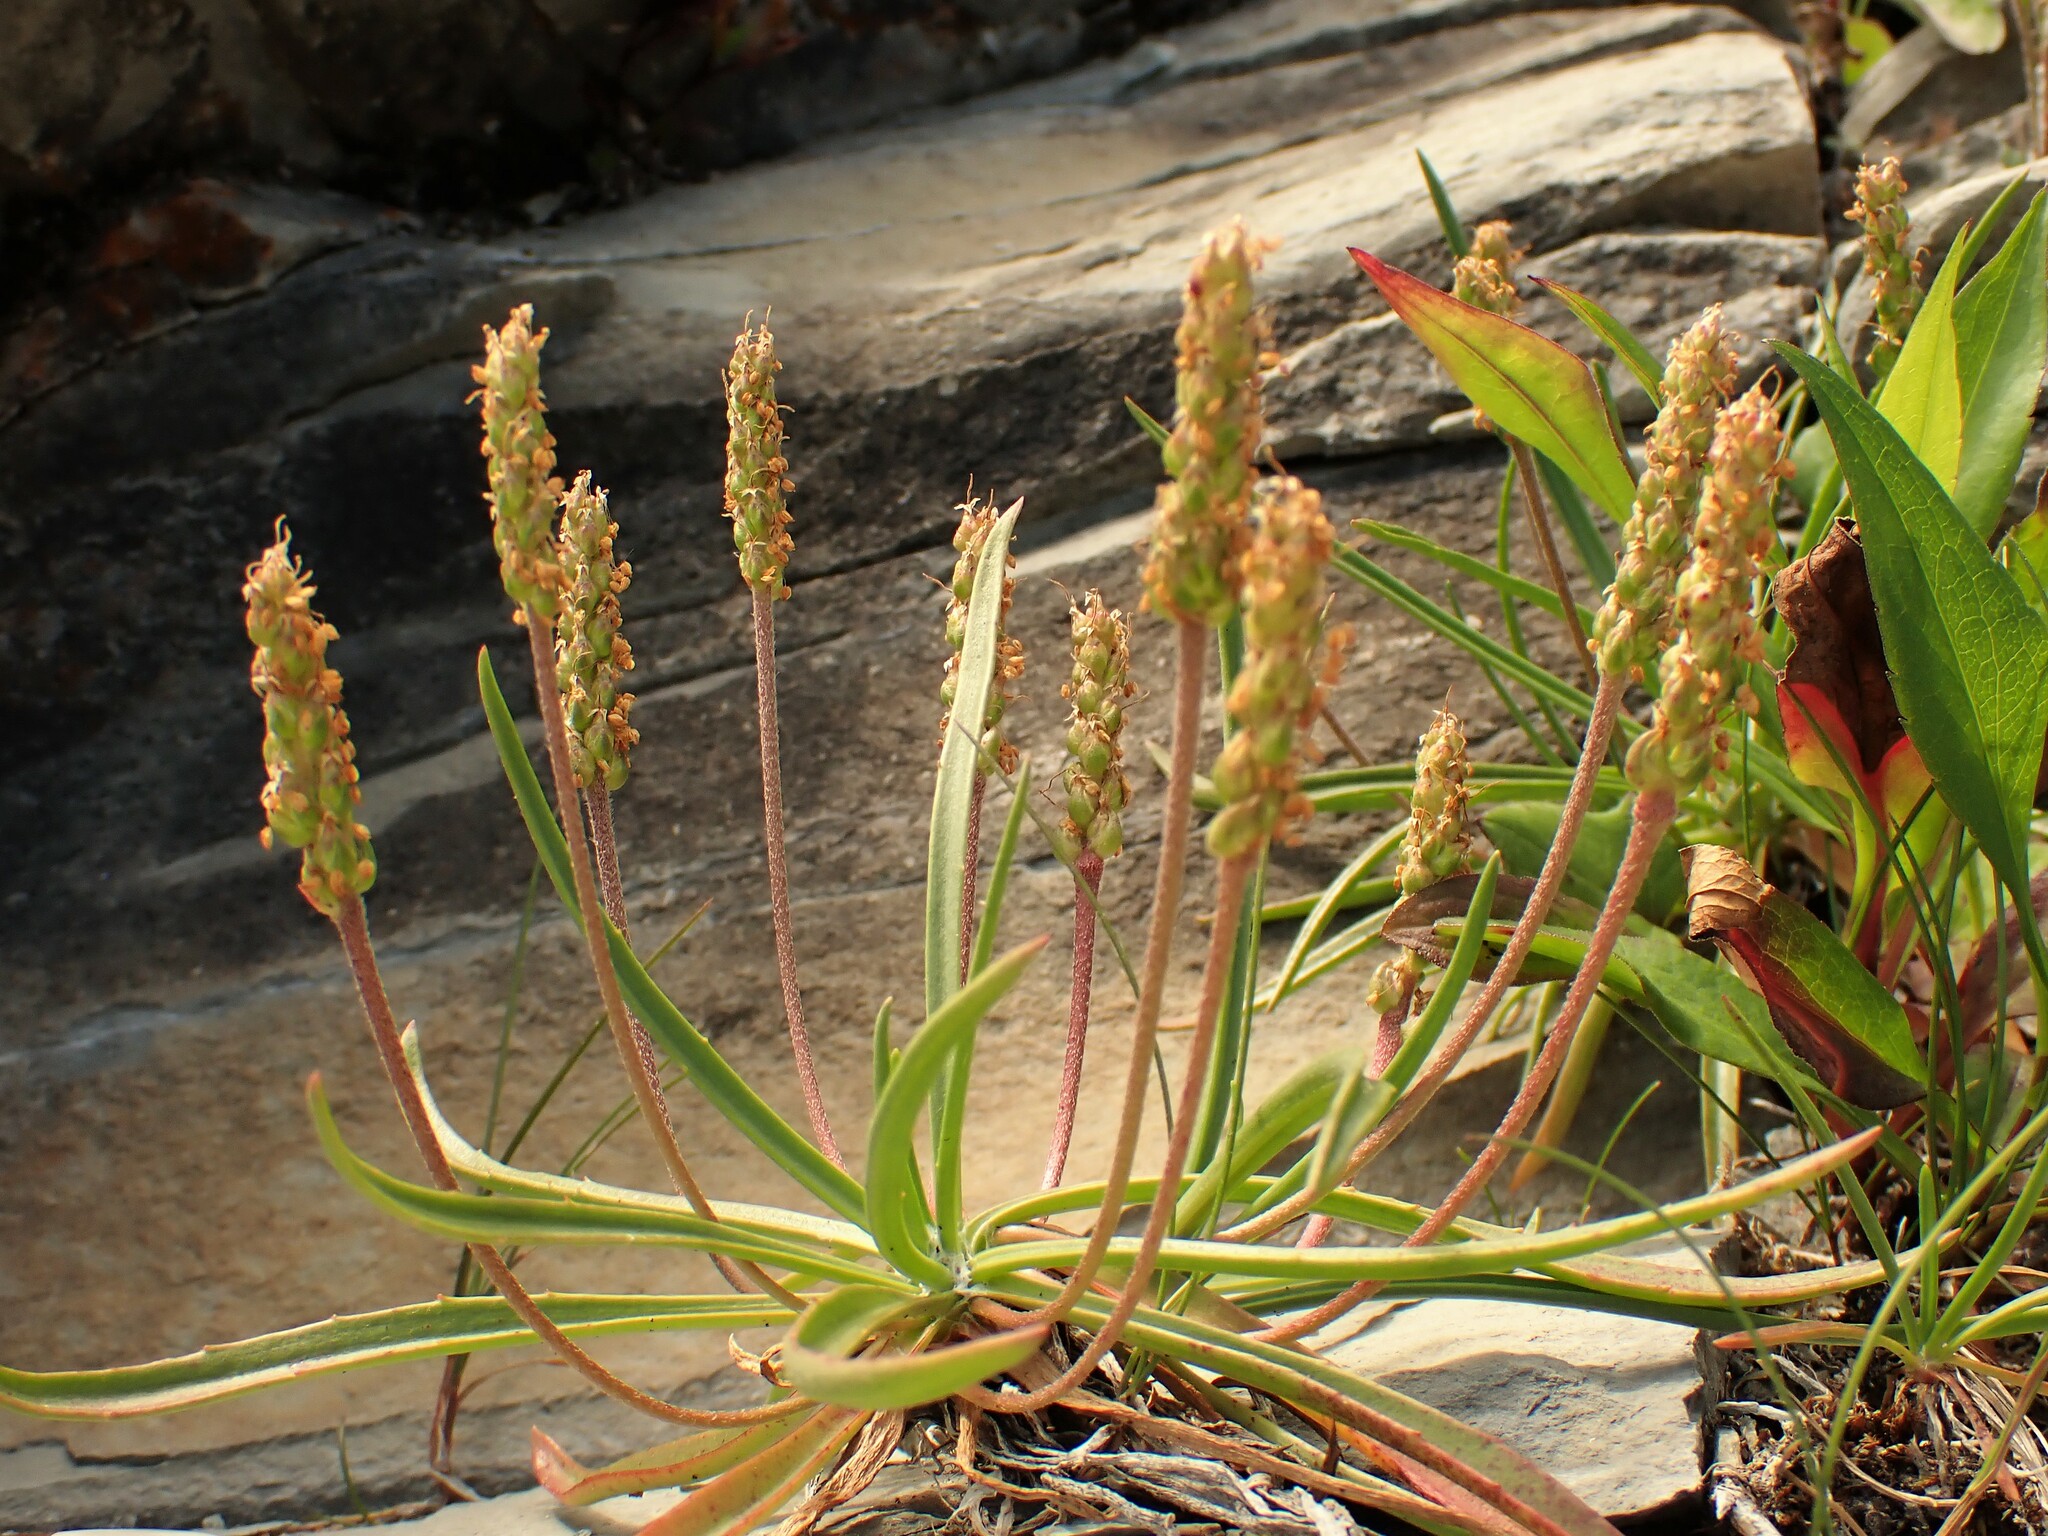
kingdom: Plantae
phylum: Tracheophyta
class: Magnoliopsida
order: Lamiales
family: Plantaginaceae
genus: Plantago
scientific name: Plantago maritima
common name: Sea plantain
